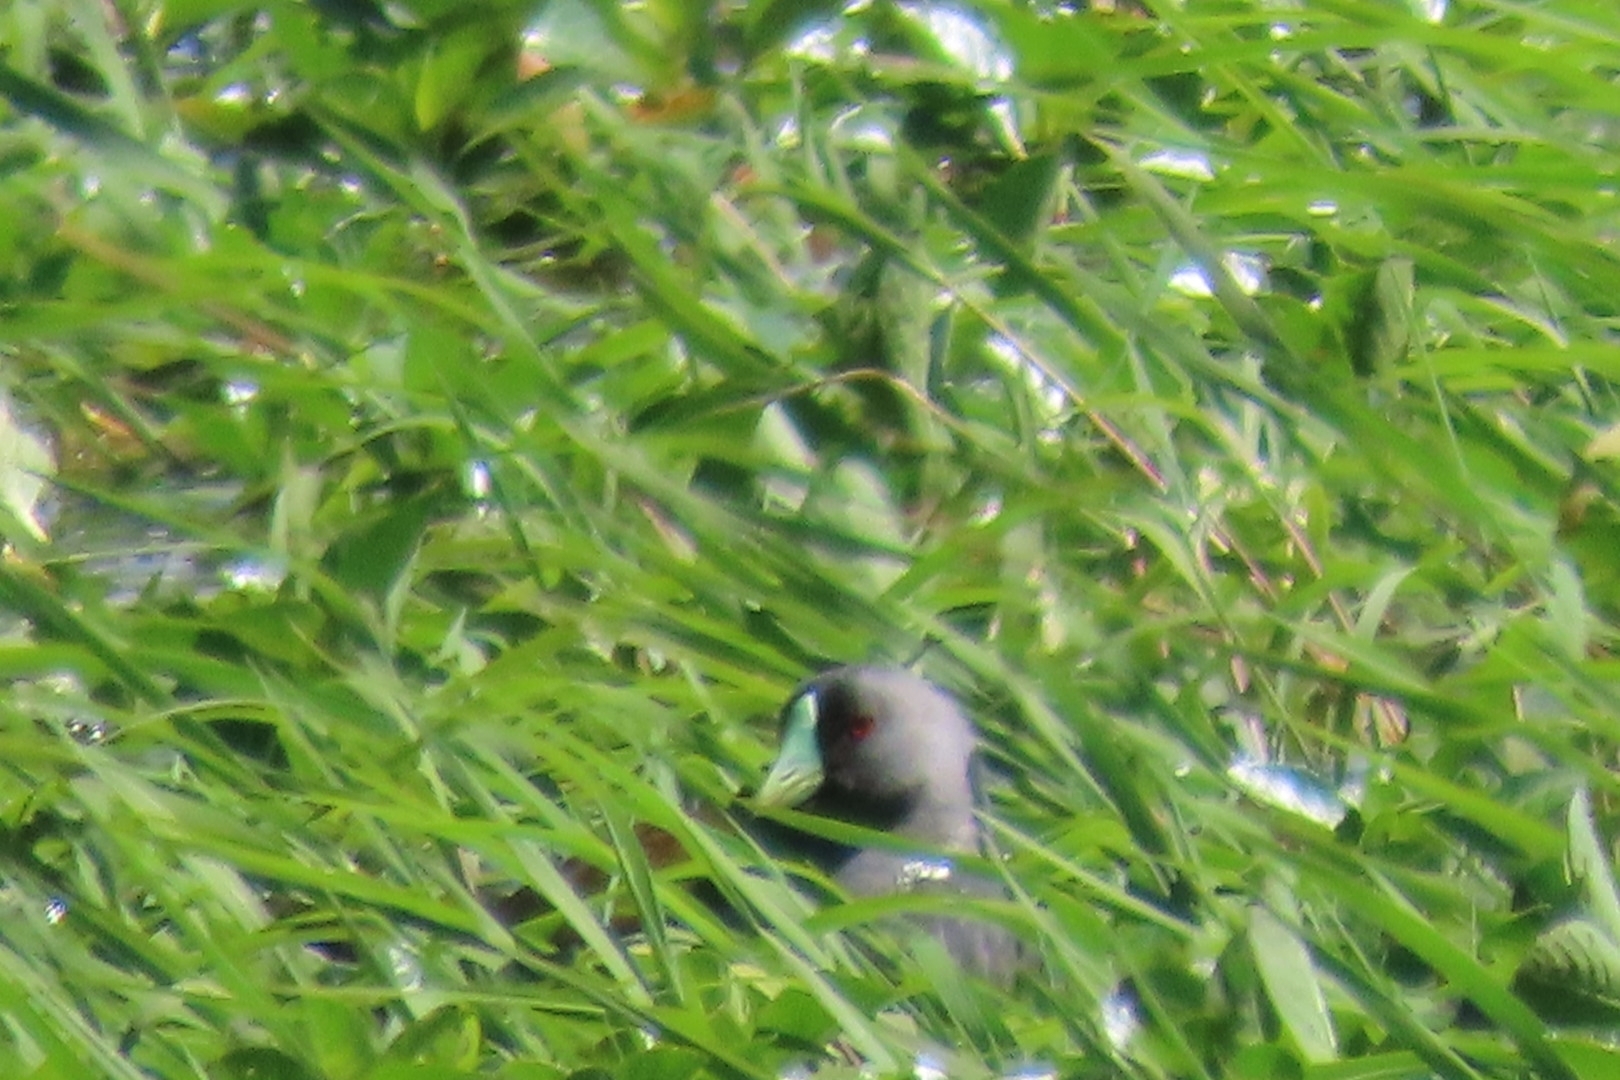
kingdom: Animalia
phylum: Chordata
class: Aves
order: Gruiformes
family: Rallidae
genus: Gallinula
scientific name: Gallinula melanops
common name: Spot-flanked gallinule
